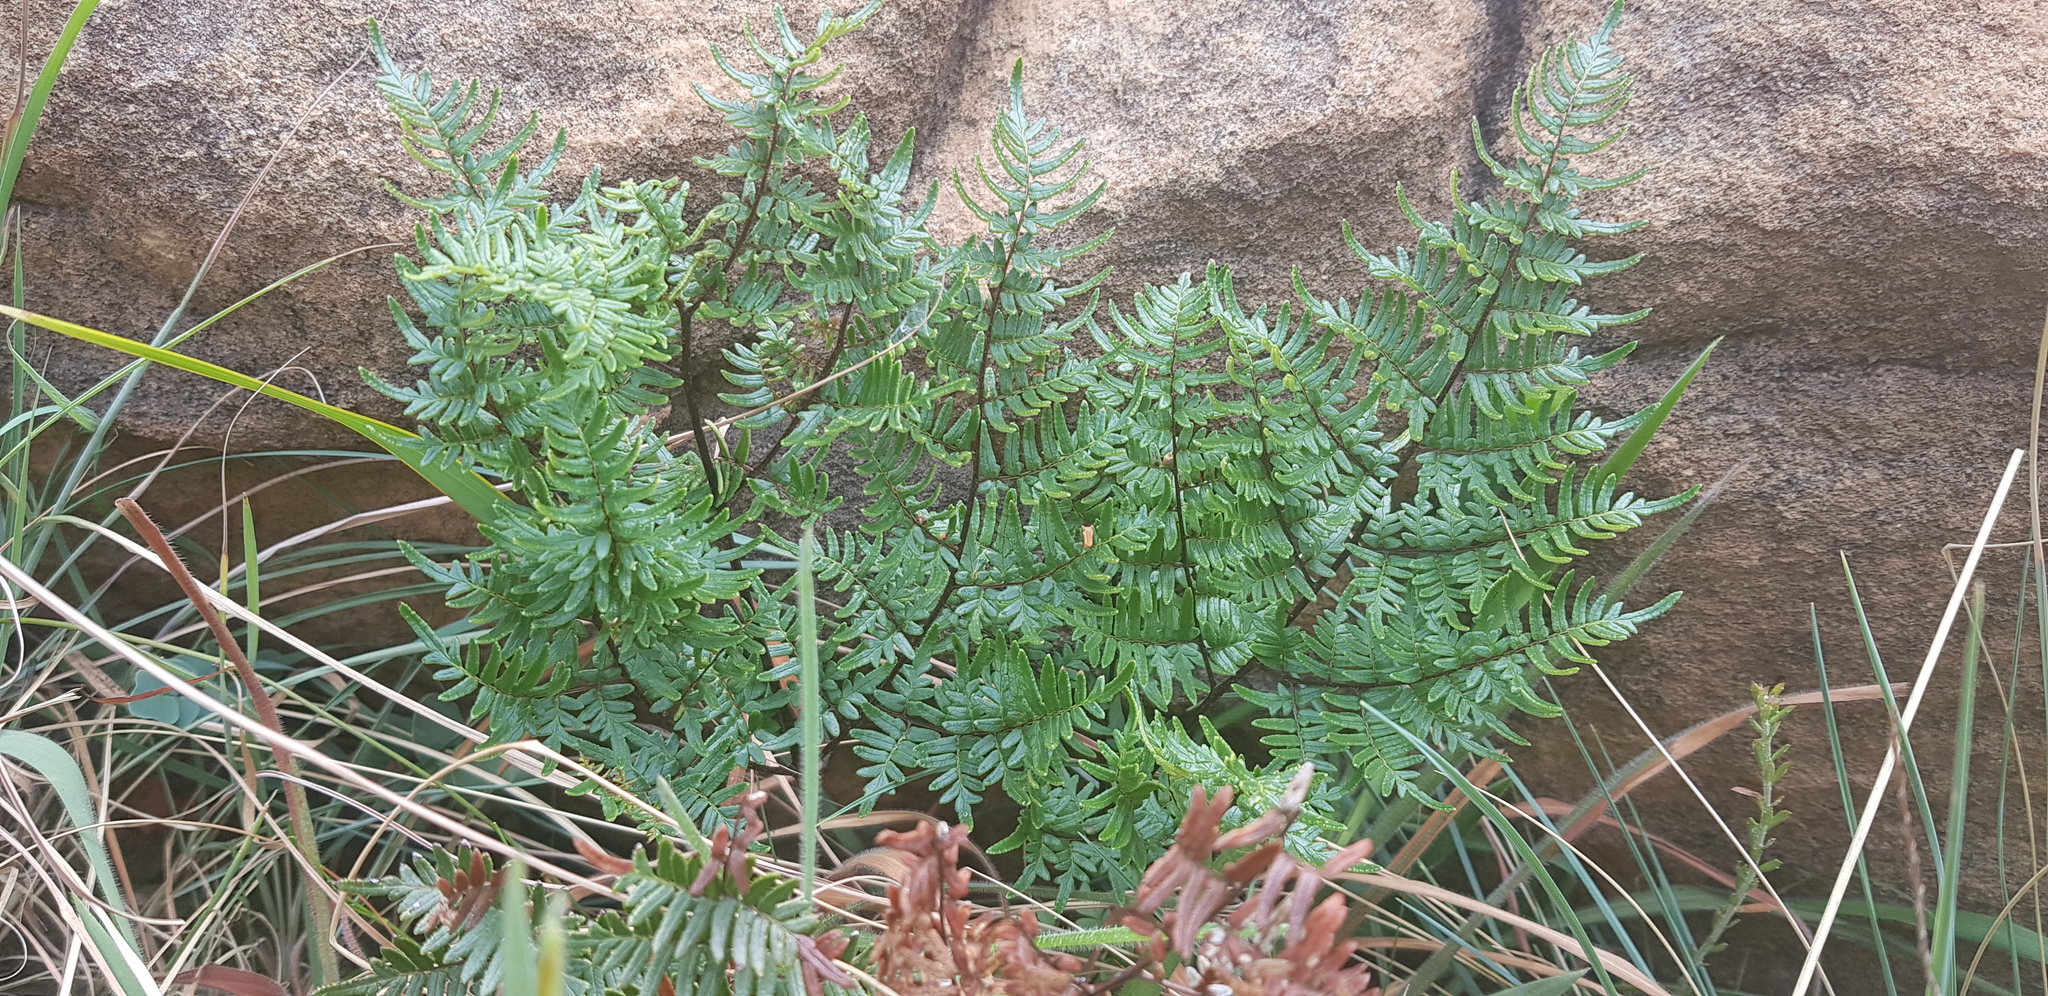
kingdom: Plantae
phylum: Tracheophyta
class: Polypodiopsida
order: Polypodiales
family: Pteridaceae
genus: Cheilanthes
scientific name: Cheilanthes quadripinnata
